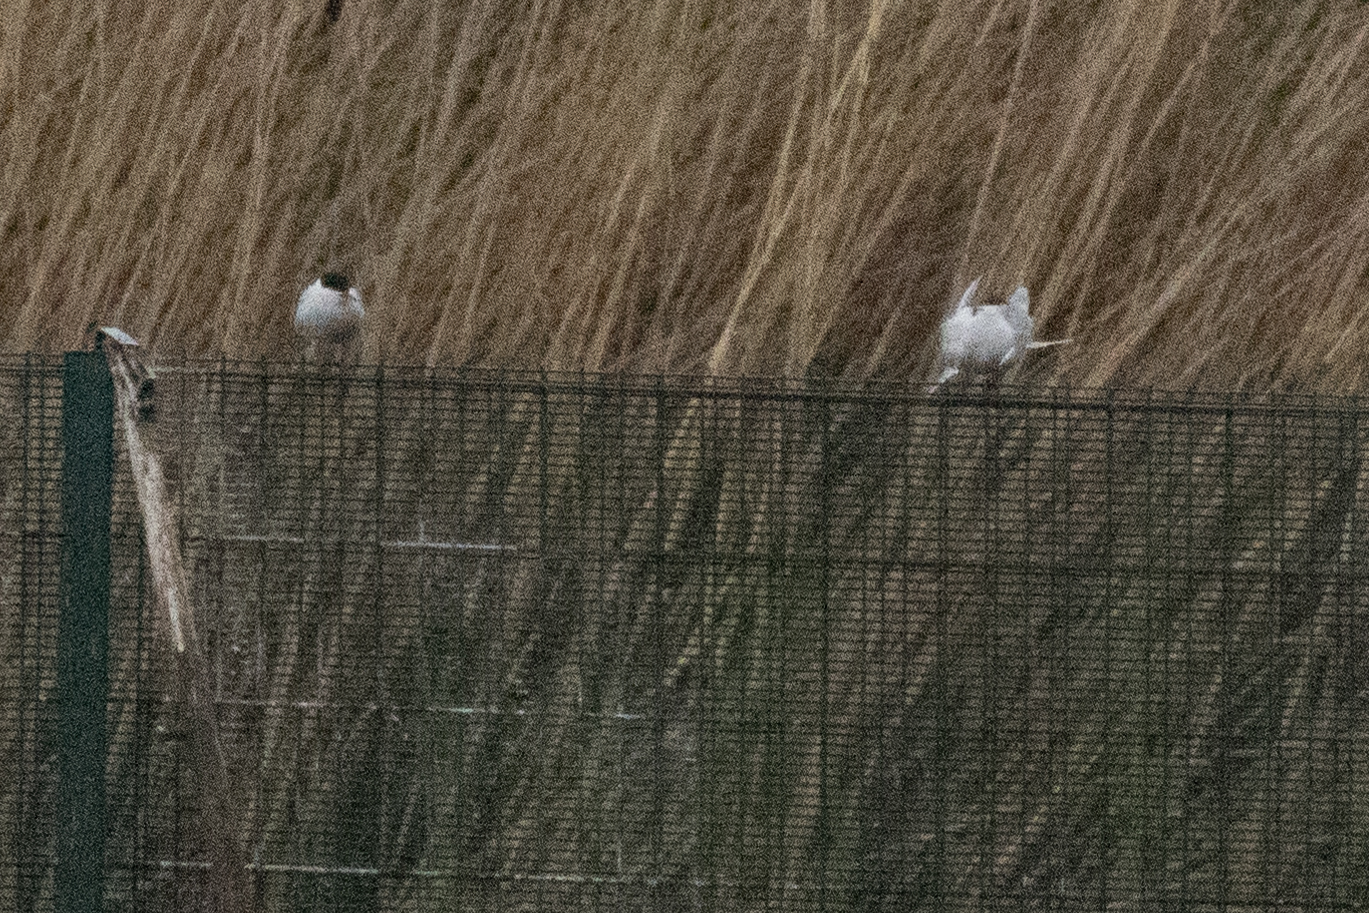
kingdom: Animalia
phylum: Chordata
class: Aves
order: Charadriiformes
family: Laridae
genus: Sterna
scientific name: Sterna hirundo
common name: Common tern
